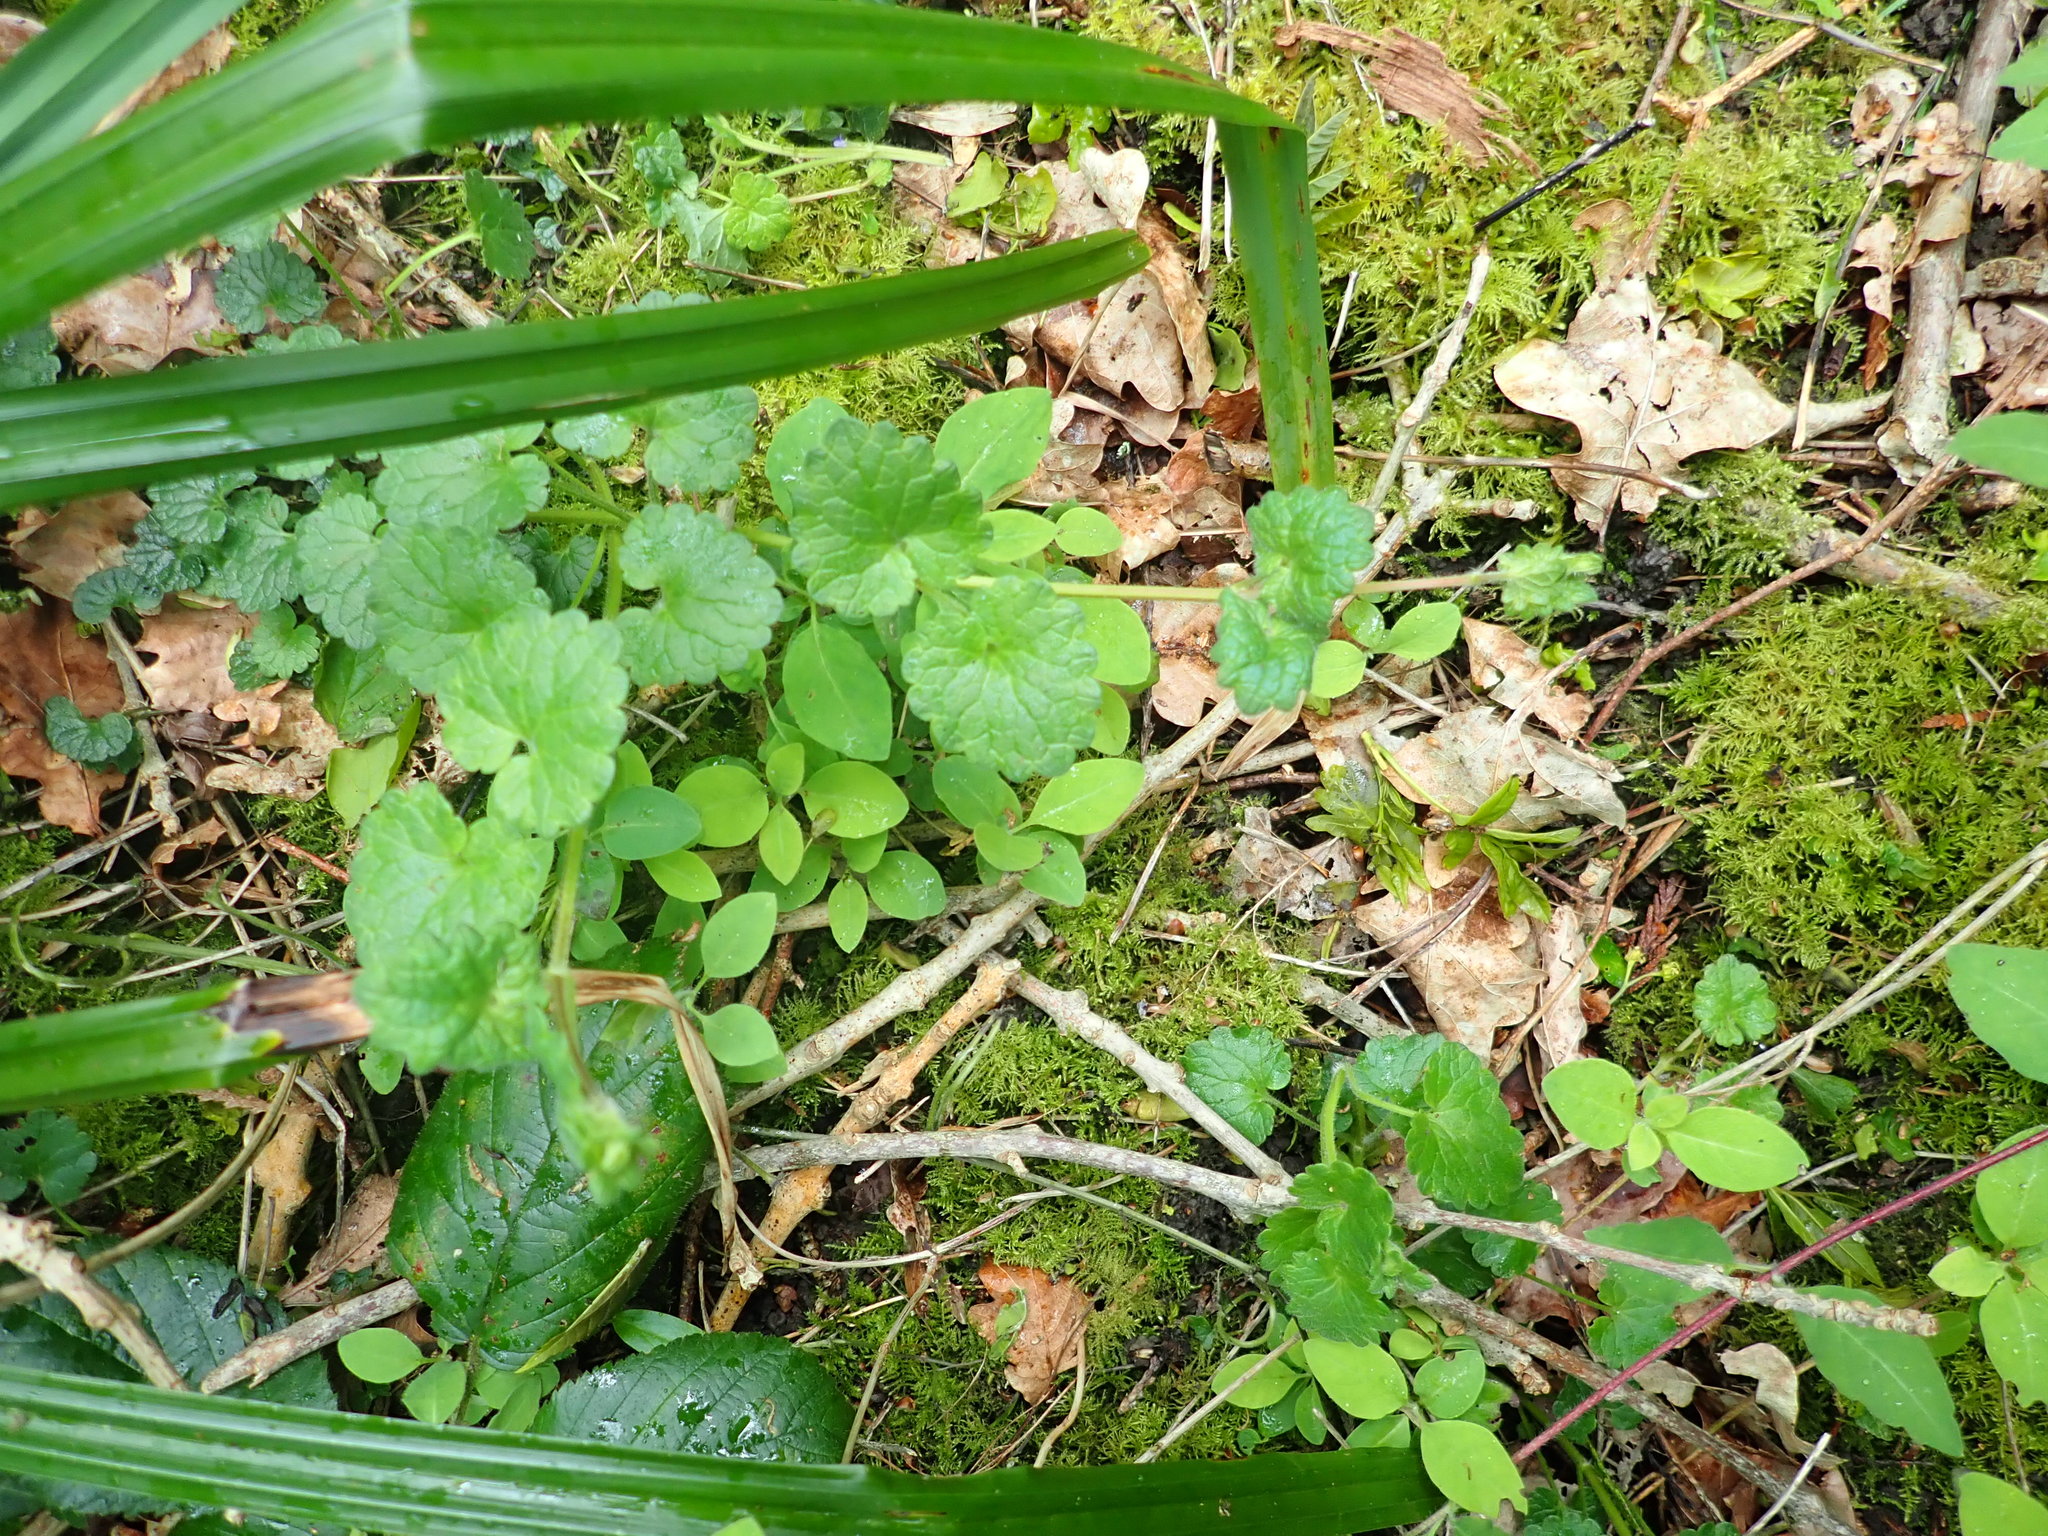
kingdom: Plantae
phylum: Tracheophyta
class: Magnoliopsida
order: Lamiales
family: Lamiaceae
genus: Glechoma
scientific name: Glechoma hederacea
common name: Ground ivy
